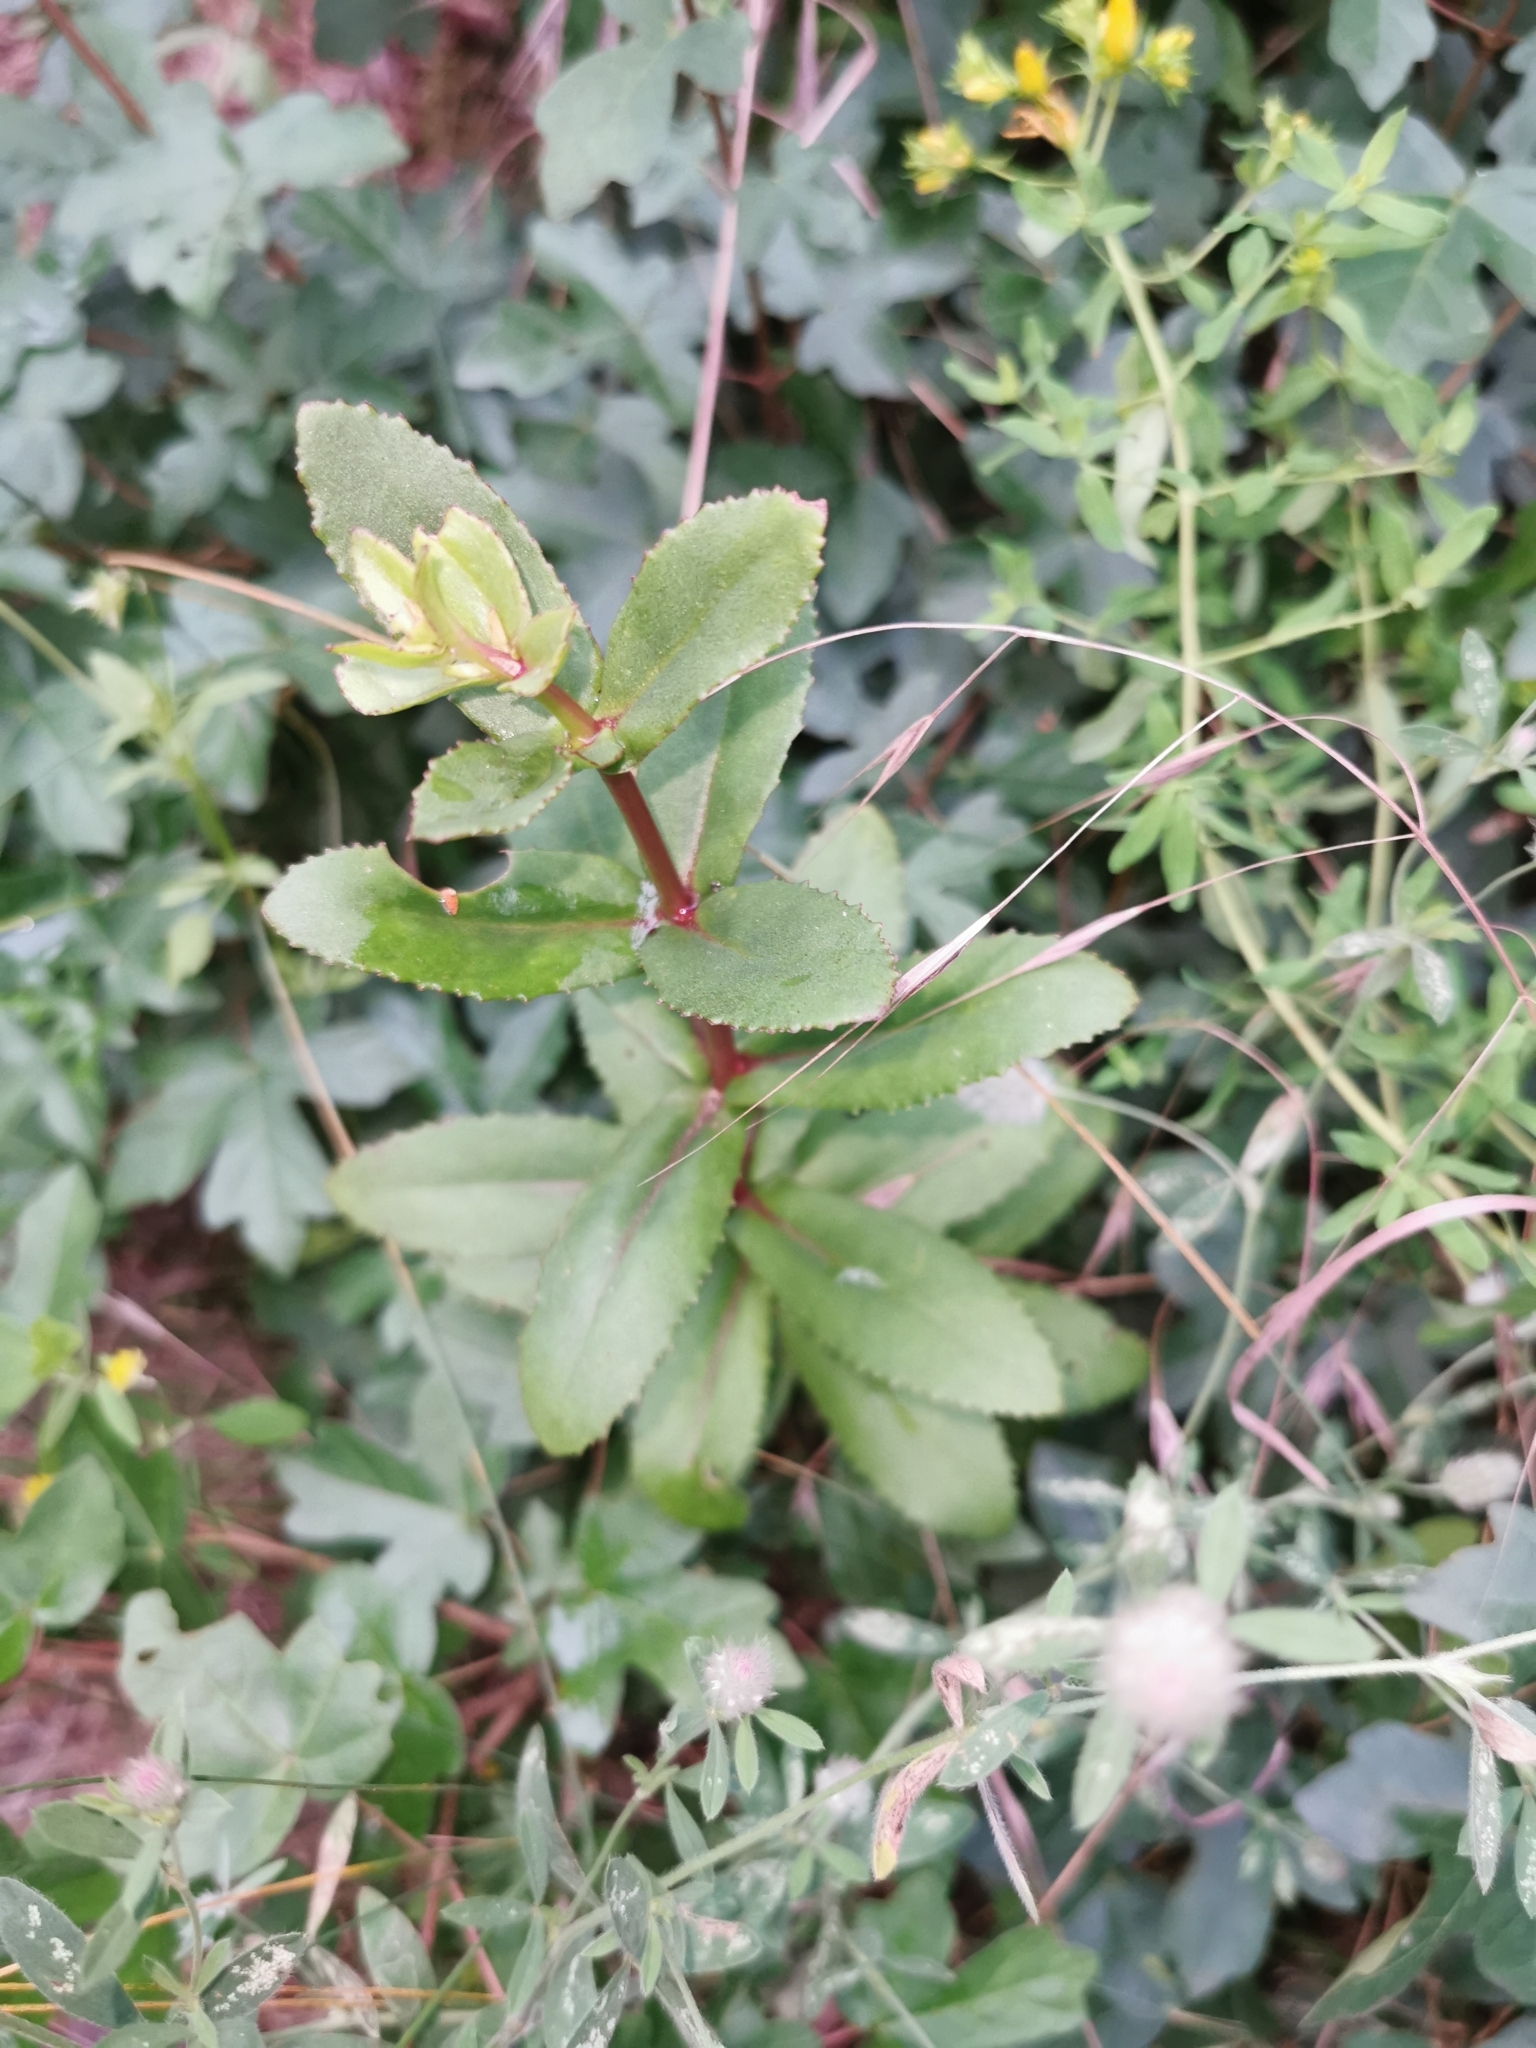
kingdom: Plantae
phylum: Tracheophyta
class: Magnoliopsida
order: Saxifragales
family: Crassulaceae
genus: Hylotelephium
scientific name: Hylotelephium maximum
